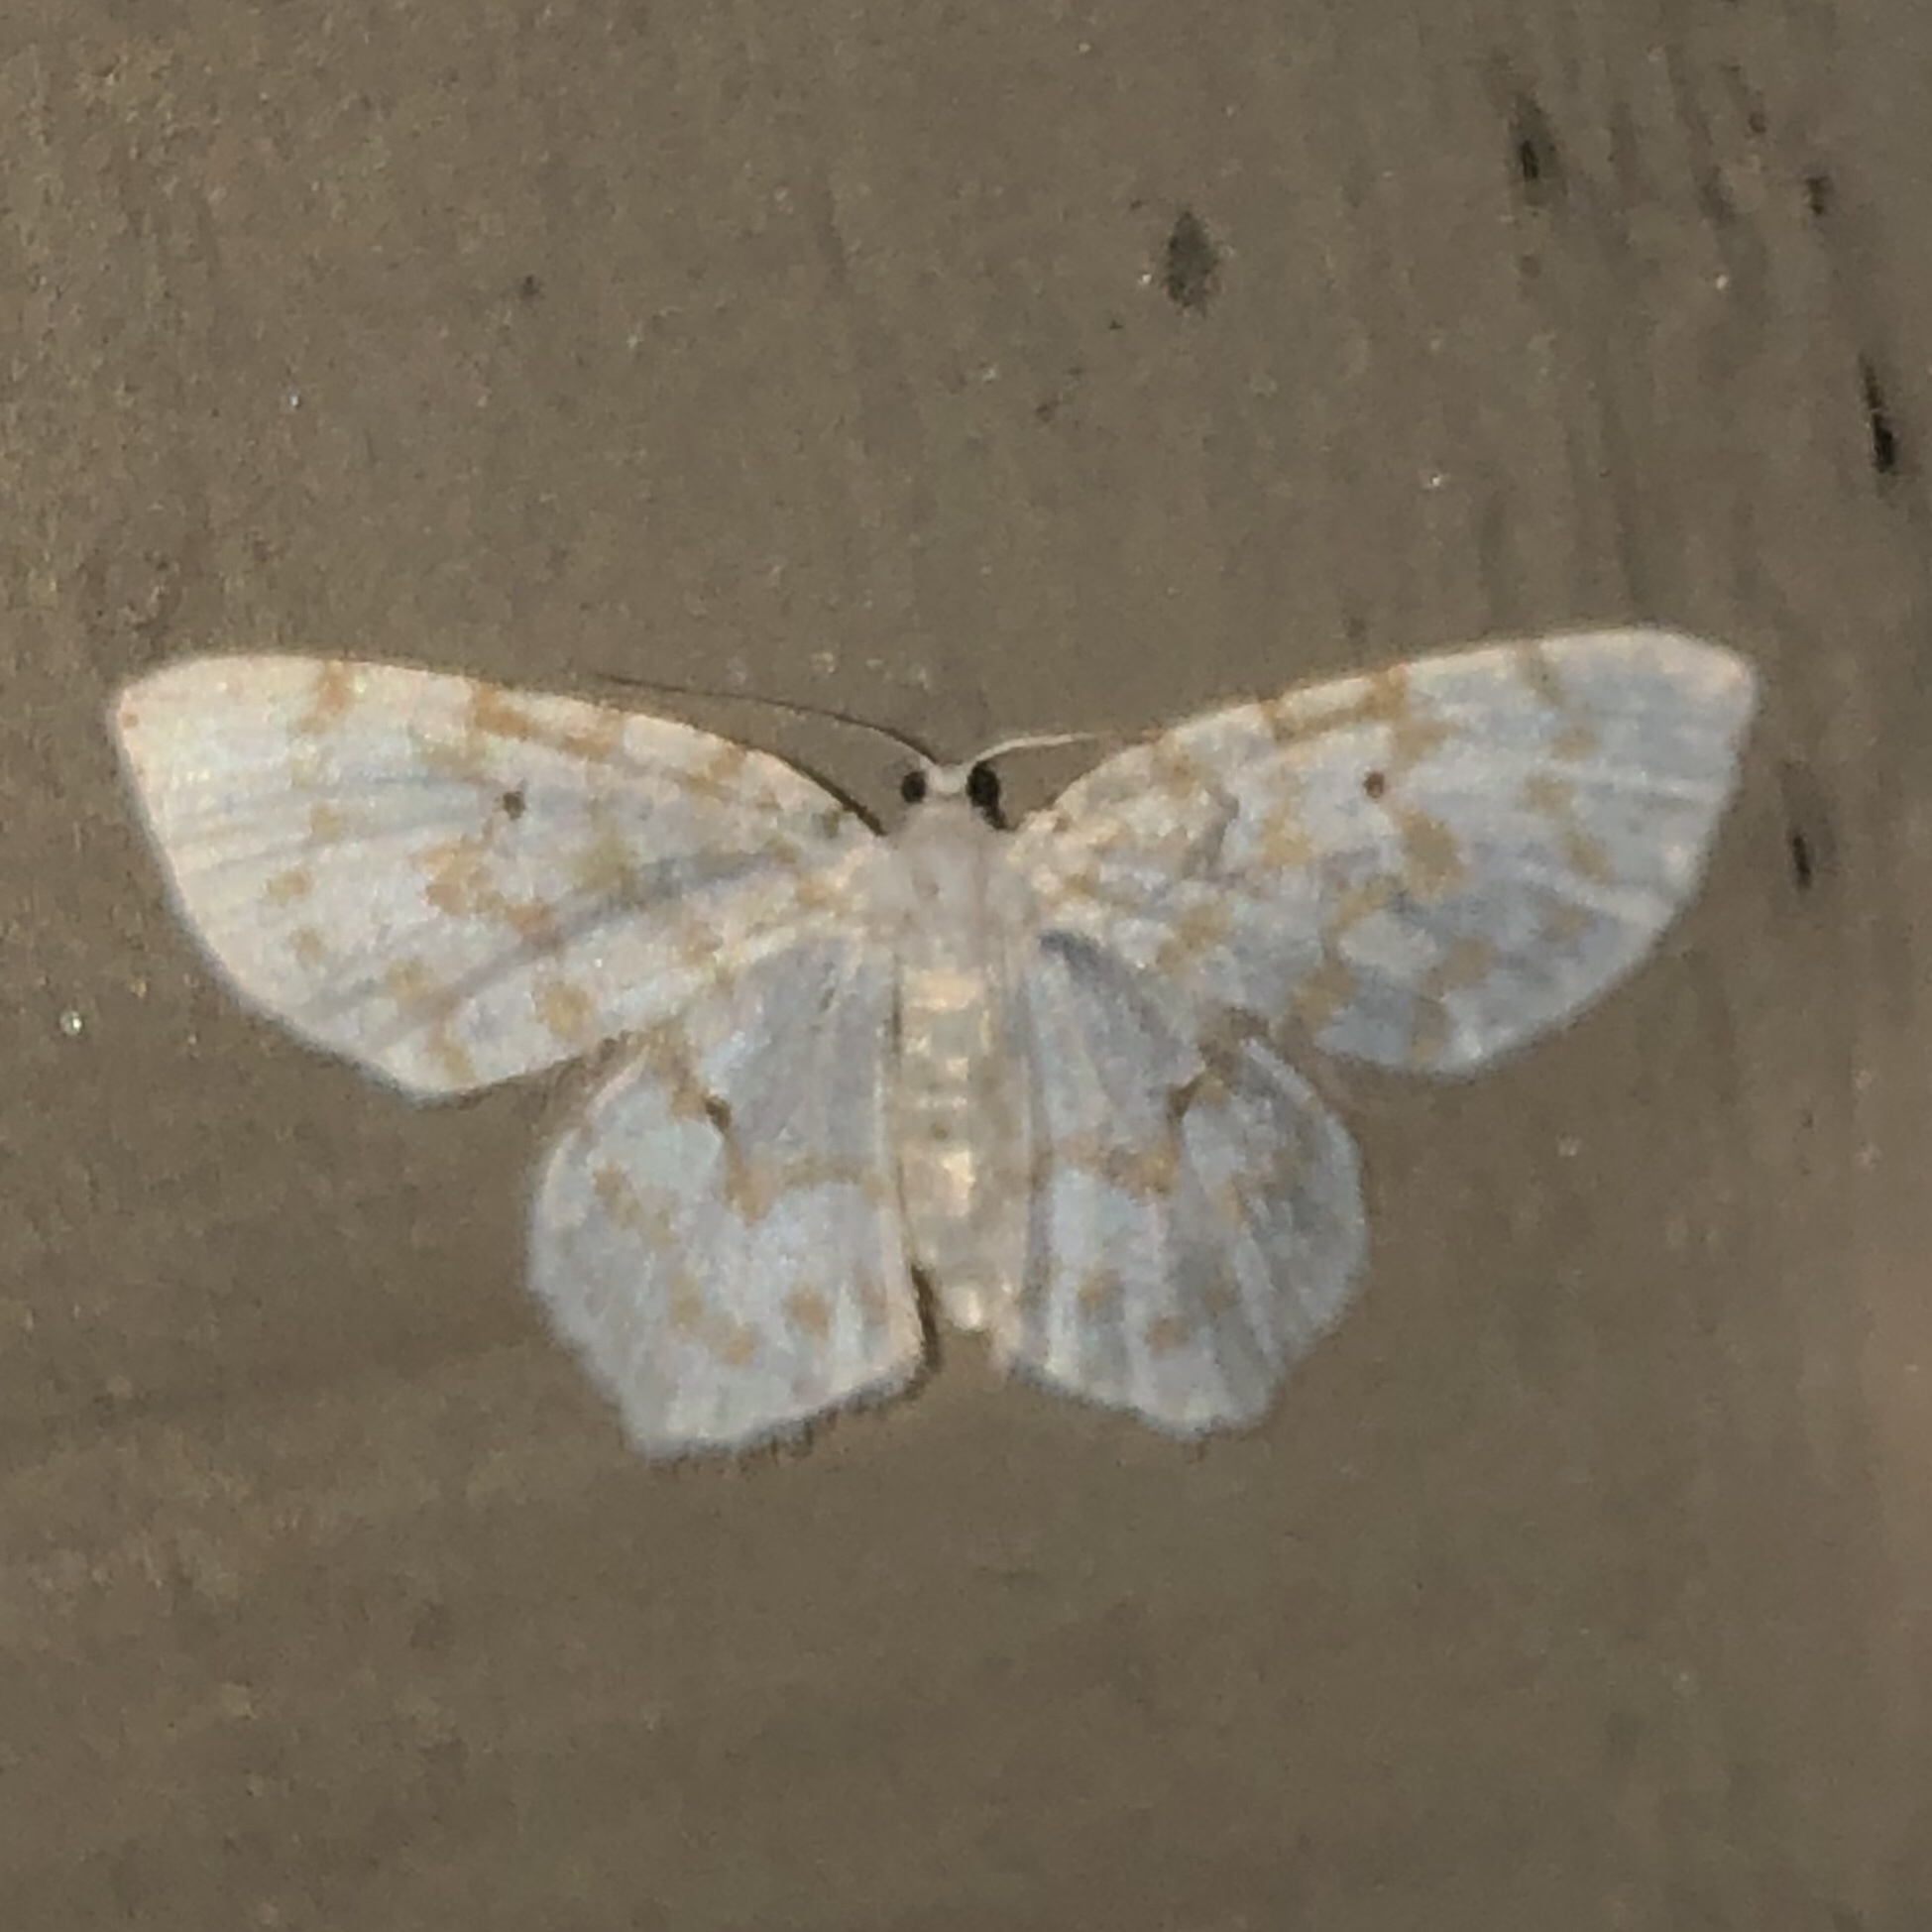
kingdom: Animalia
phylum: Arthropoda
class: Insecta
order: Lepidoptera
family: Geometridae
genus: Hydrelia
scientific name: Hydrelia albifera
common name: Fragile white carpet
